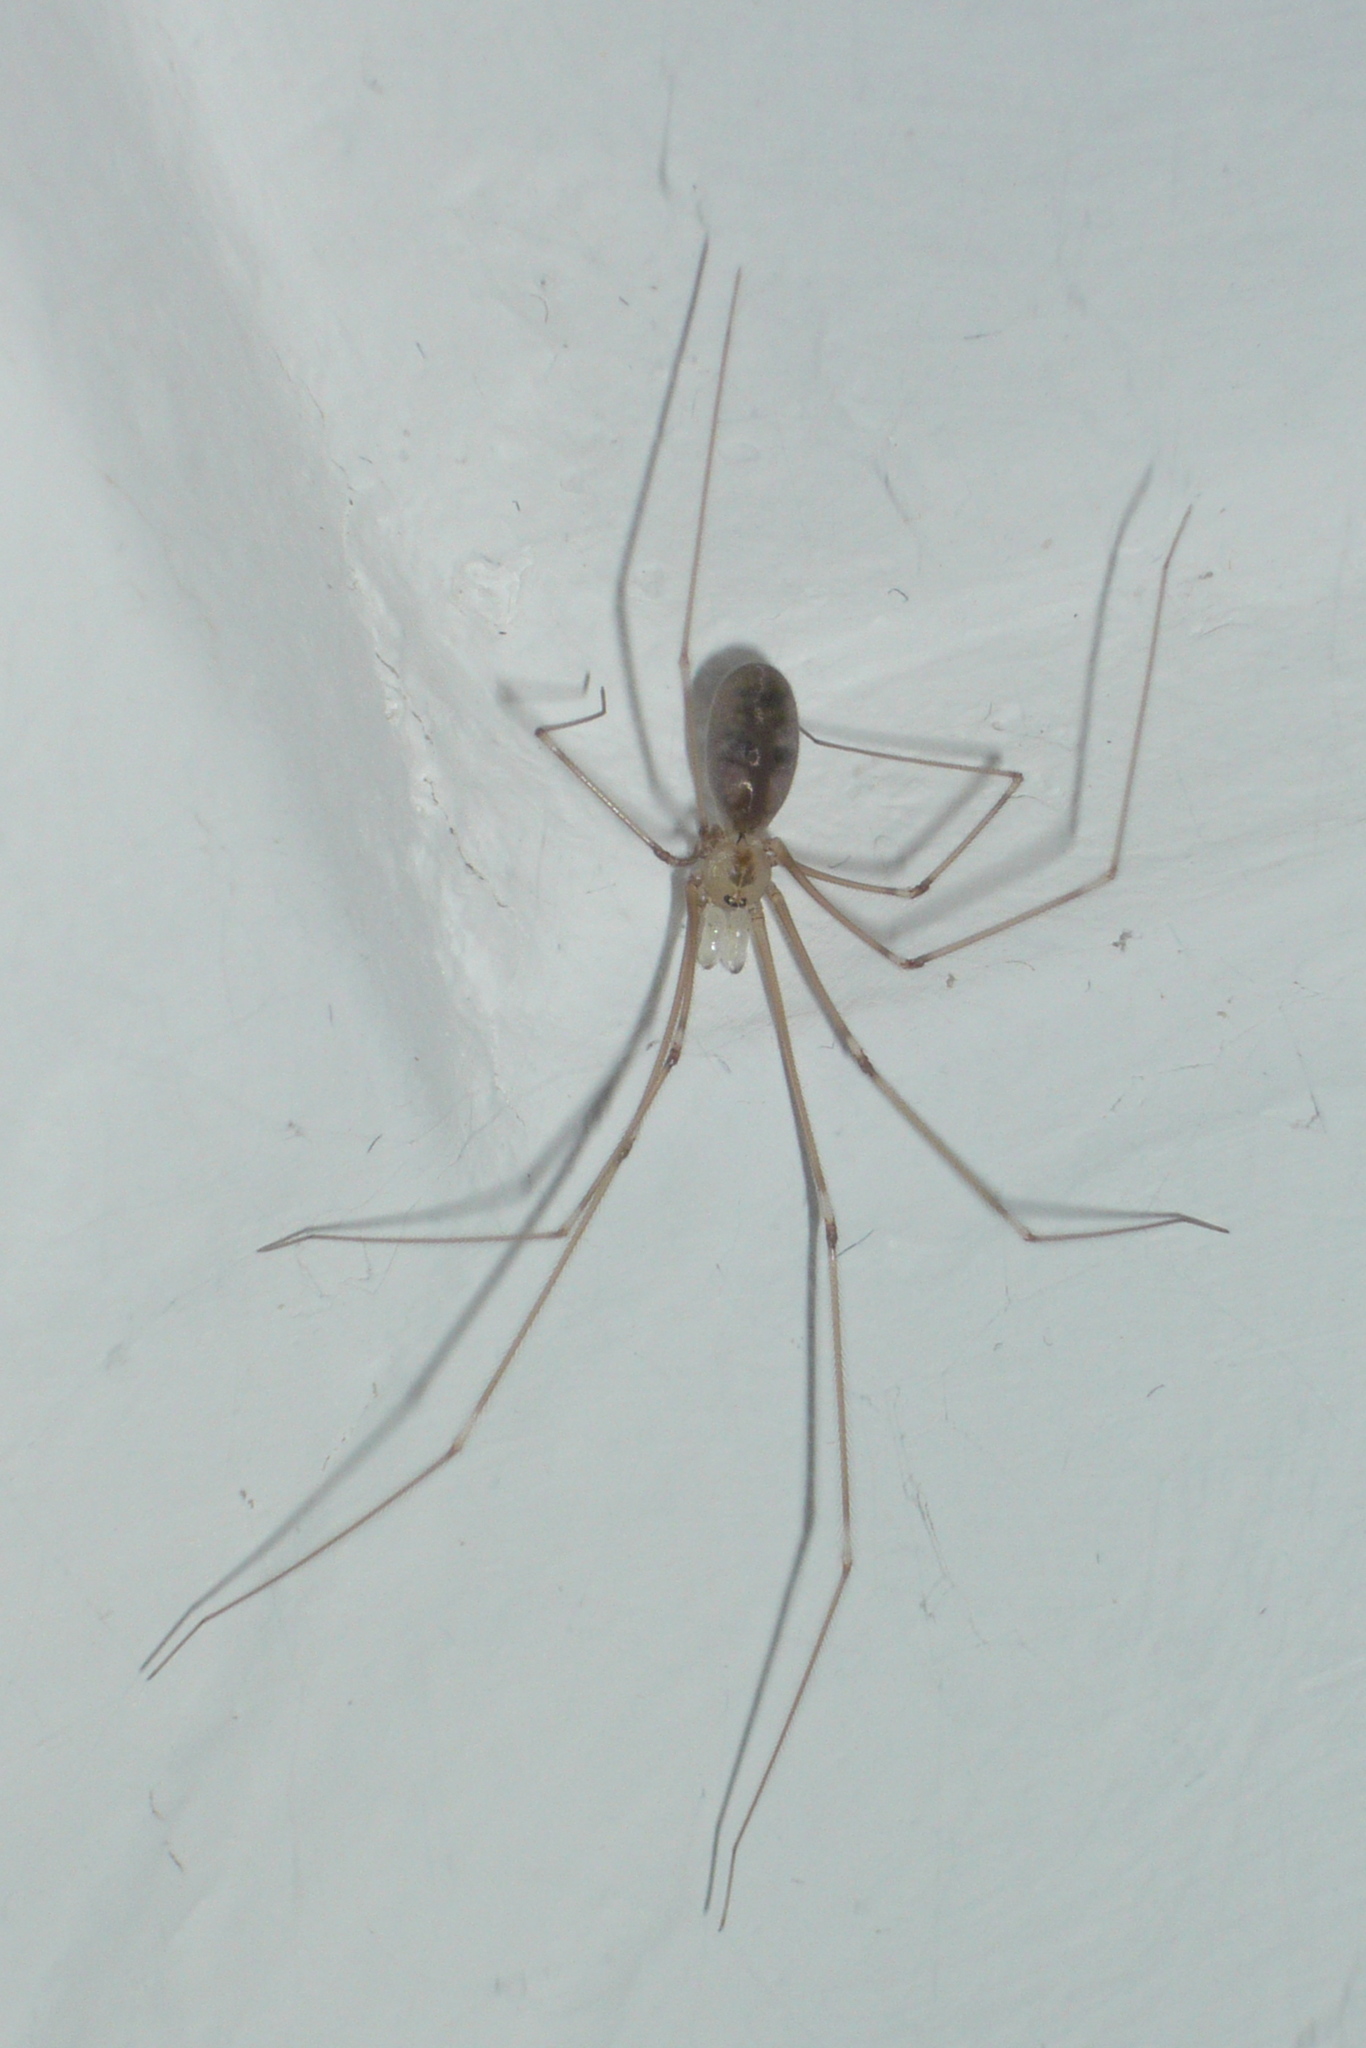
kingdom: Animalia
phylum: Arthropoda
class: Arachnida
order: Araneae
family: Pholcidae
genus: Pholcus
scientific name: Pholcus phalangioides
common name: Longbodied cellar spider
